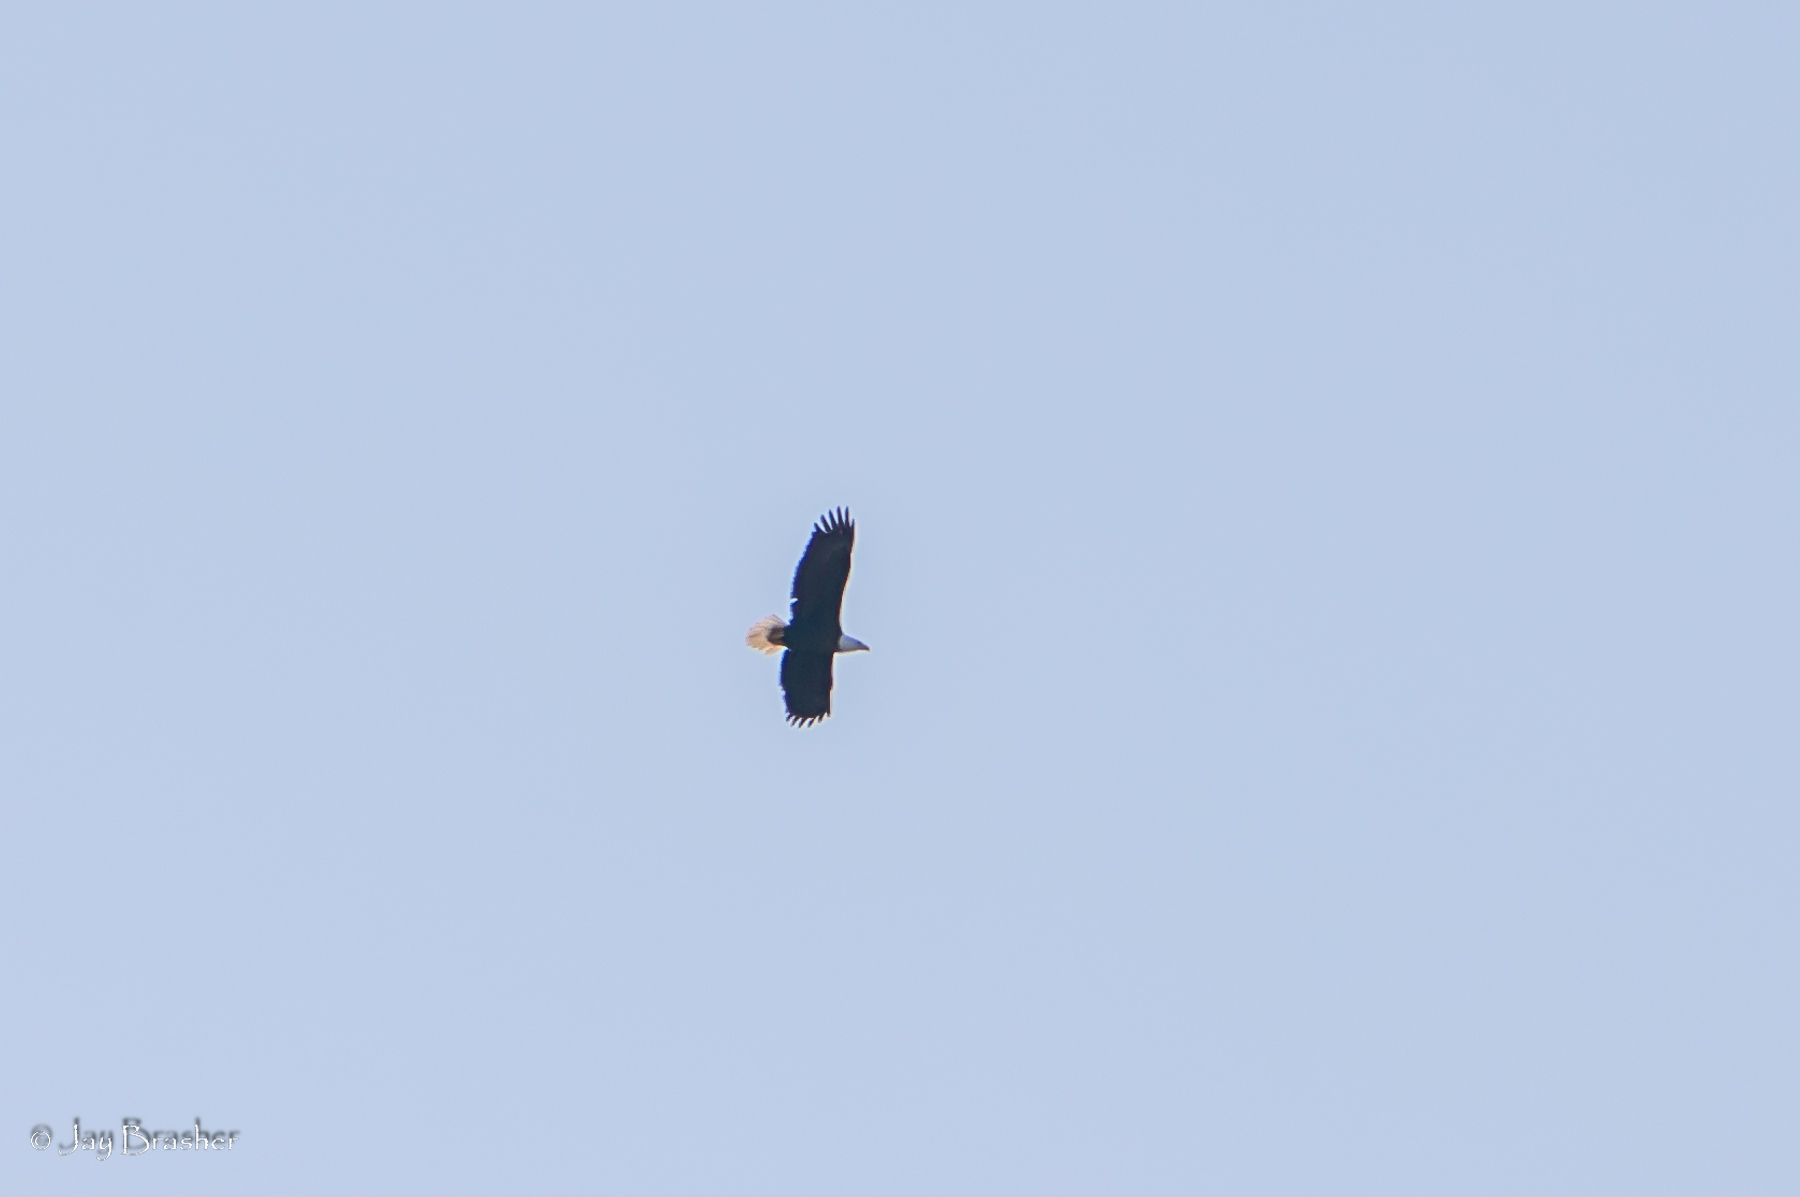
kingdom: Animalia
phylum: Chordata
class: Aves
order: Accipitriformes
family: Accipitridae
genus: Haliaeetus
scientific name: Haliaeetus leucocephalus
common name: Bald eagle
